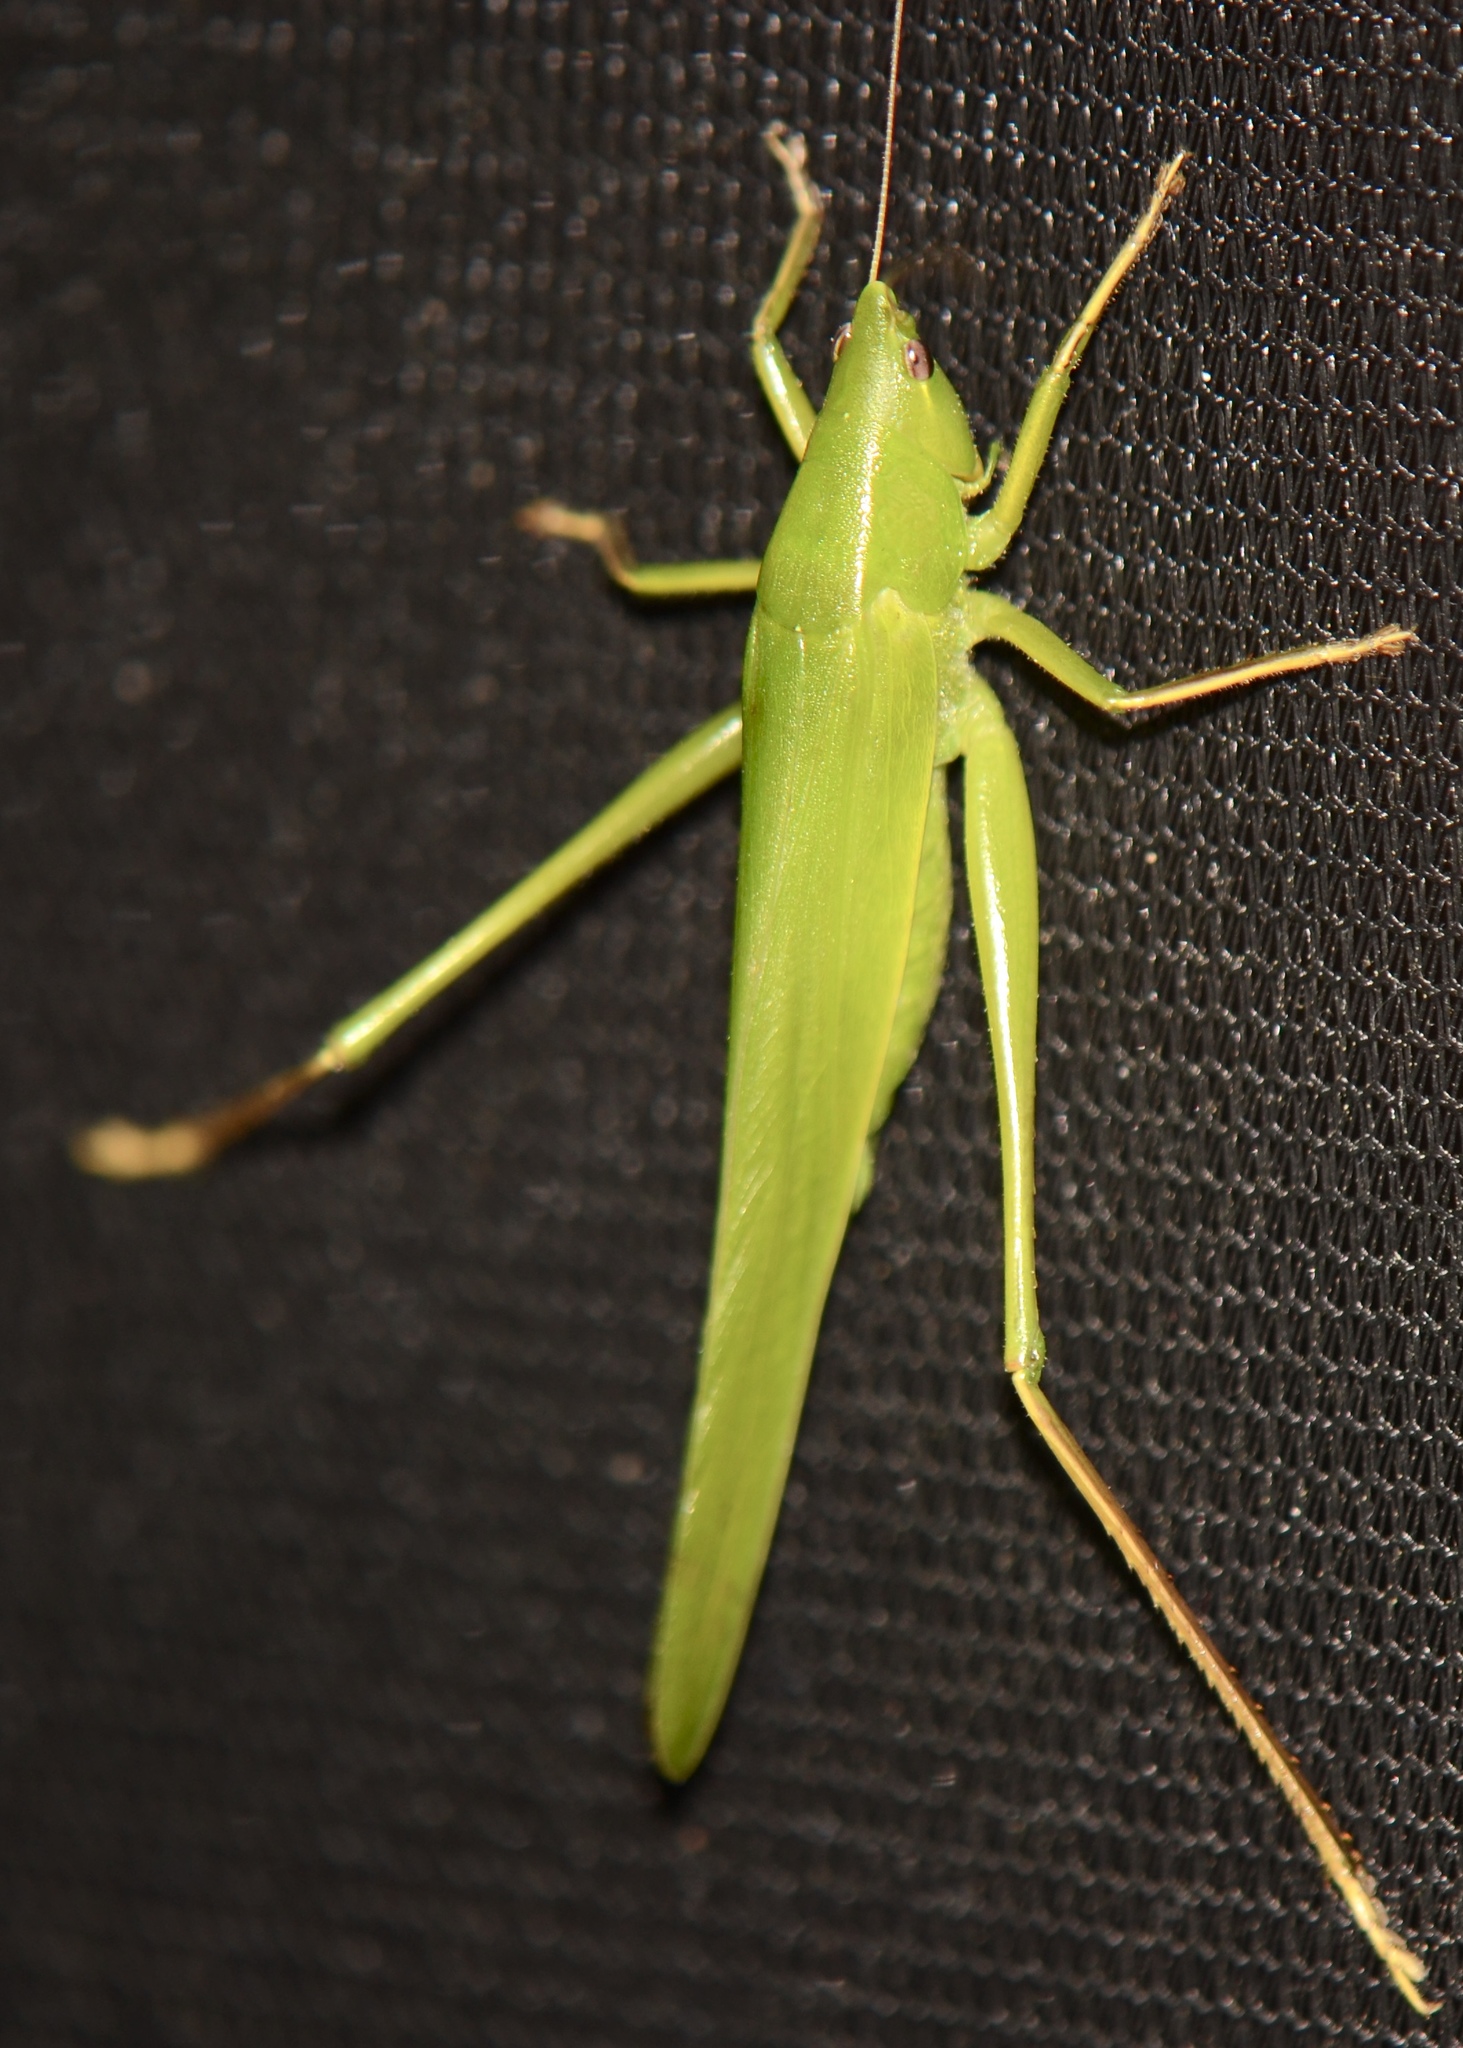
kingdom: Animalia
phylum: Arthropoda
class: Insecta
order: Orthoptera
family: Tettigoniidae
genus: Neoconocephalus
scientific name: Neoconocephalus triops
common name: Broad-tipped conehead
